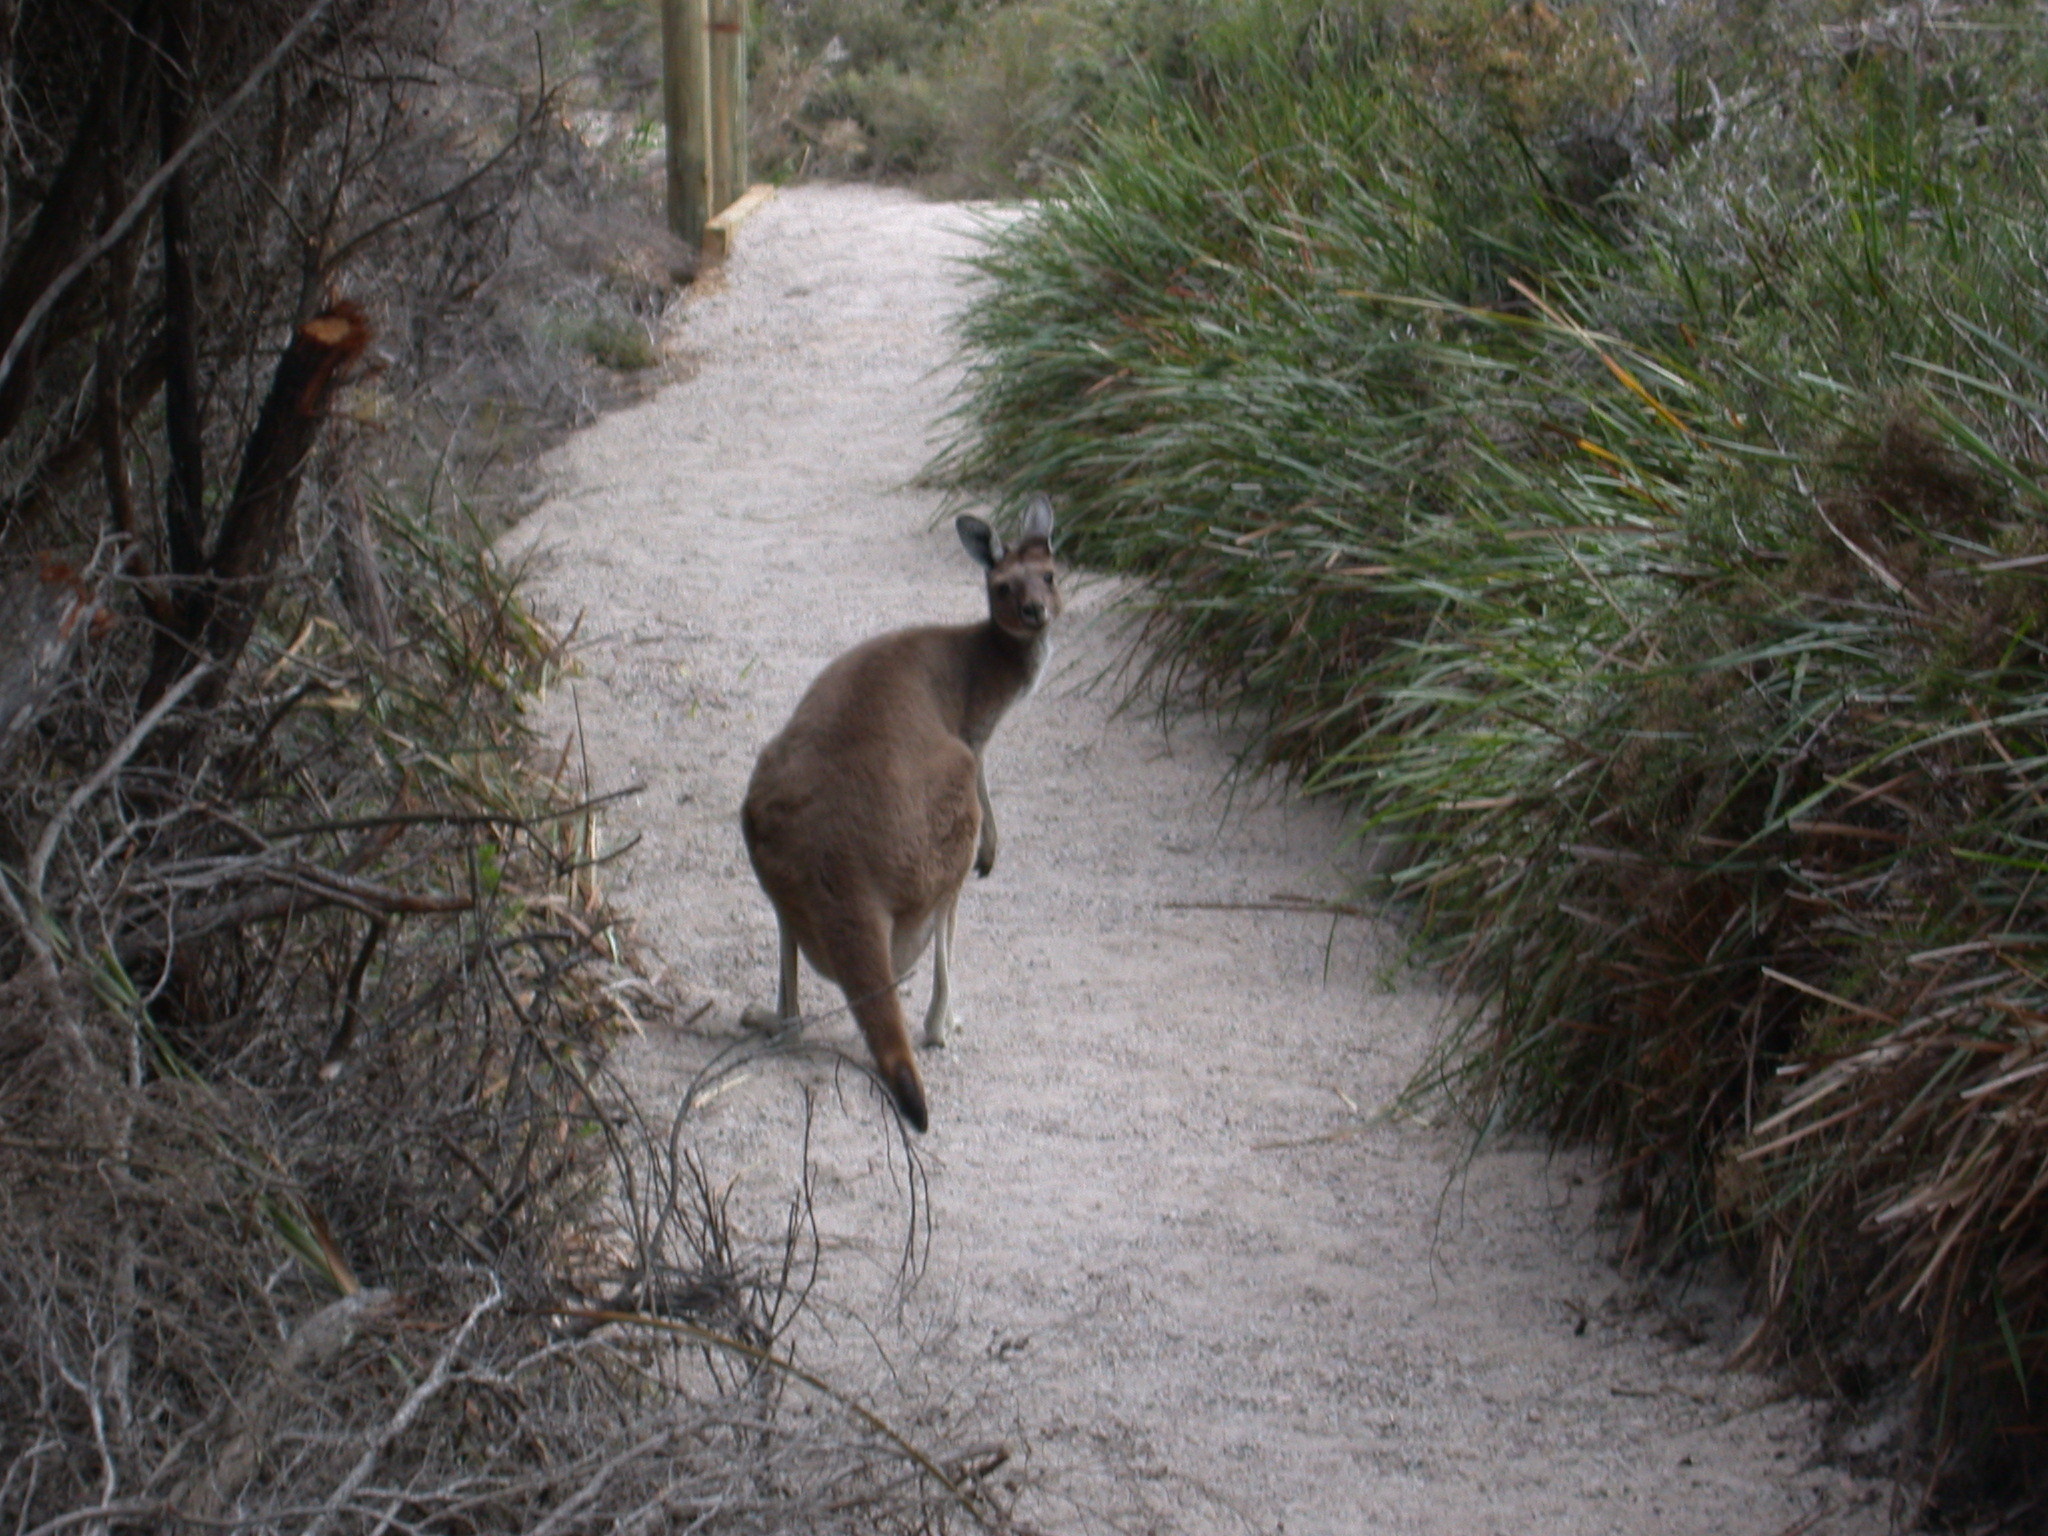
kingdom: Animalia
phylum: Chordata
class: Mammalia
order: Diprotodontia
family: Macropodidae
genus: Macropus
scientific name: Macropus fuliginosus
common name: Western grey kangaroo
